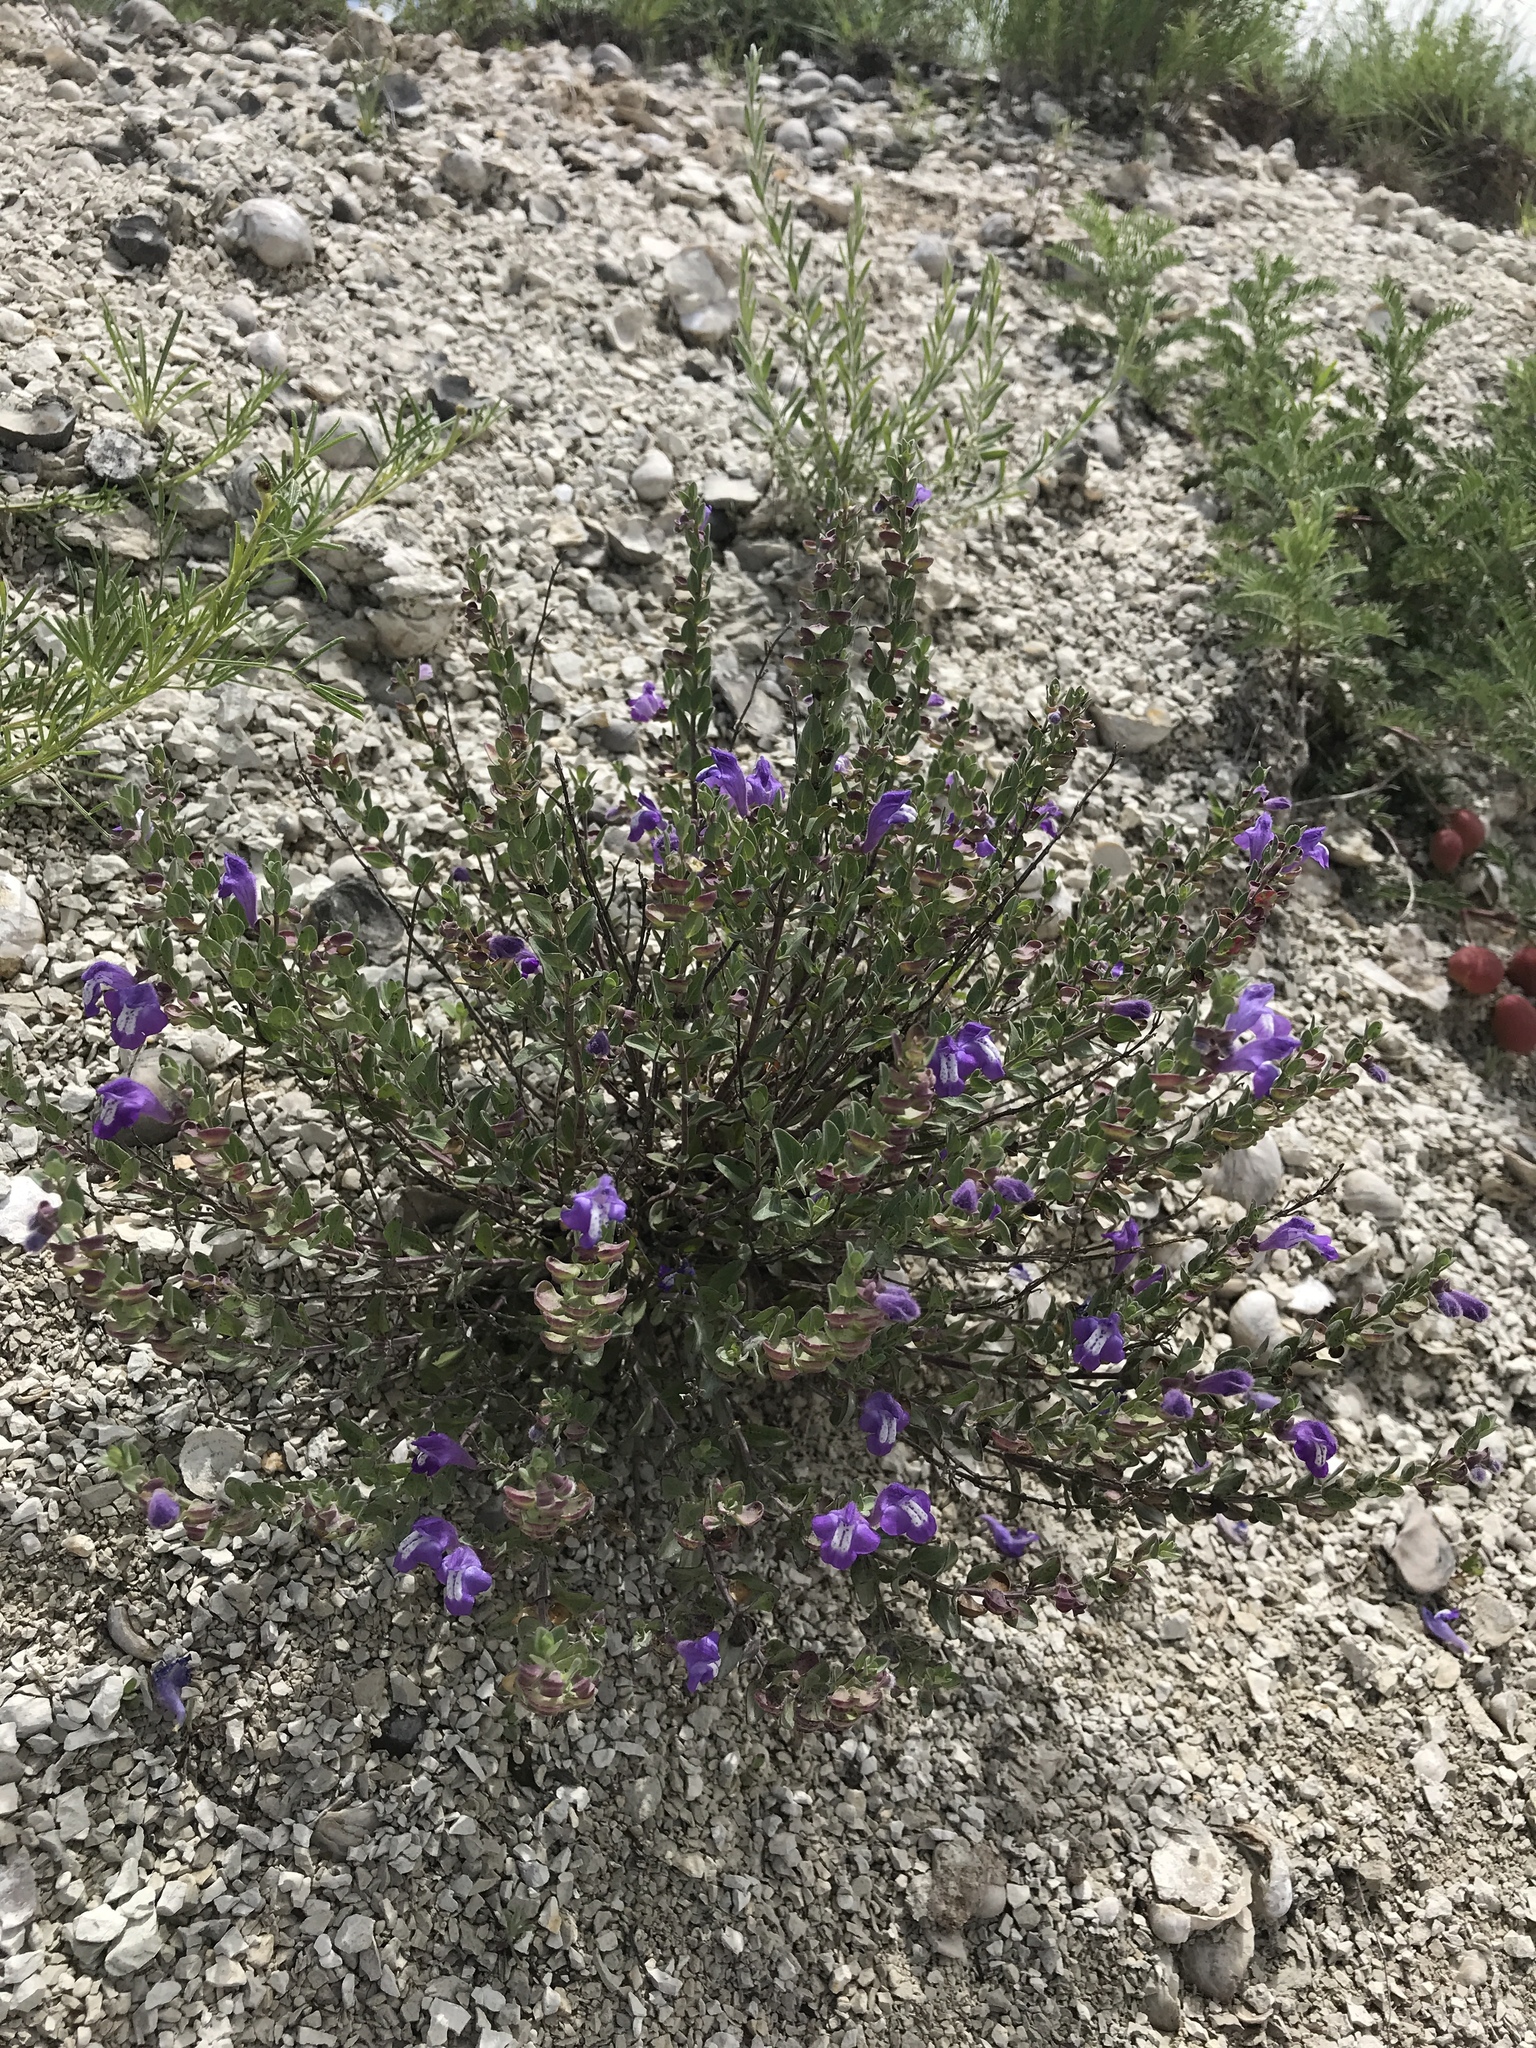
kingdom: Plantae
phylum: Tracheophyta
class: Magnoliopsida
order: Lamiales
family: Lamiaceae
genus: Scutellaria
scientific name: Scutellaria wrightii
